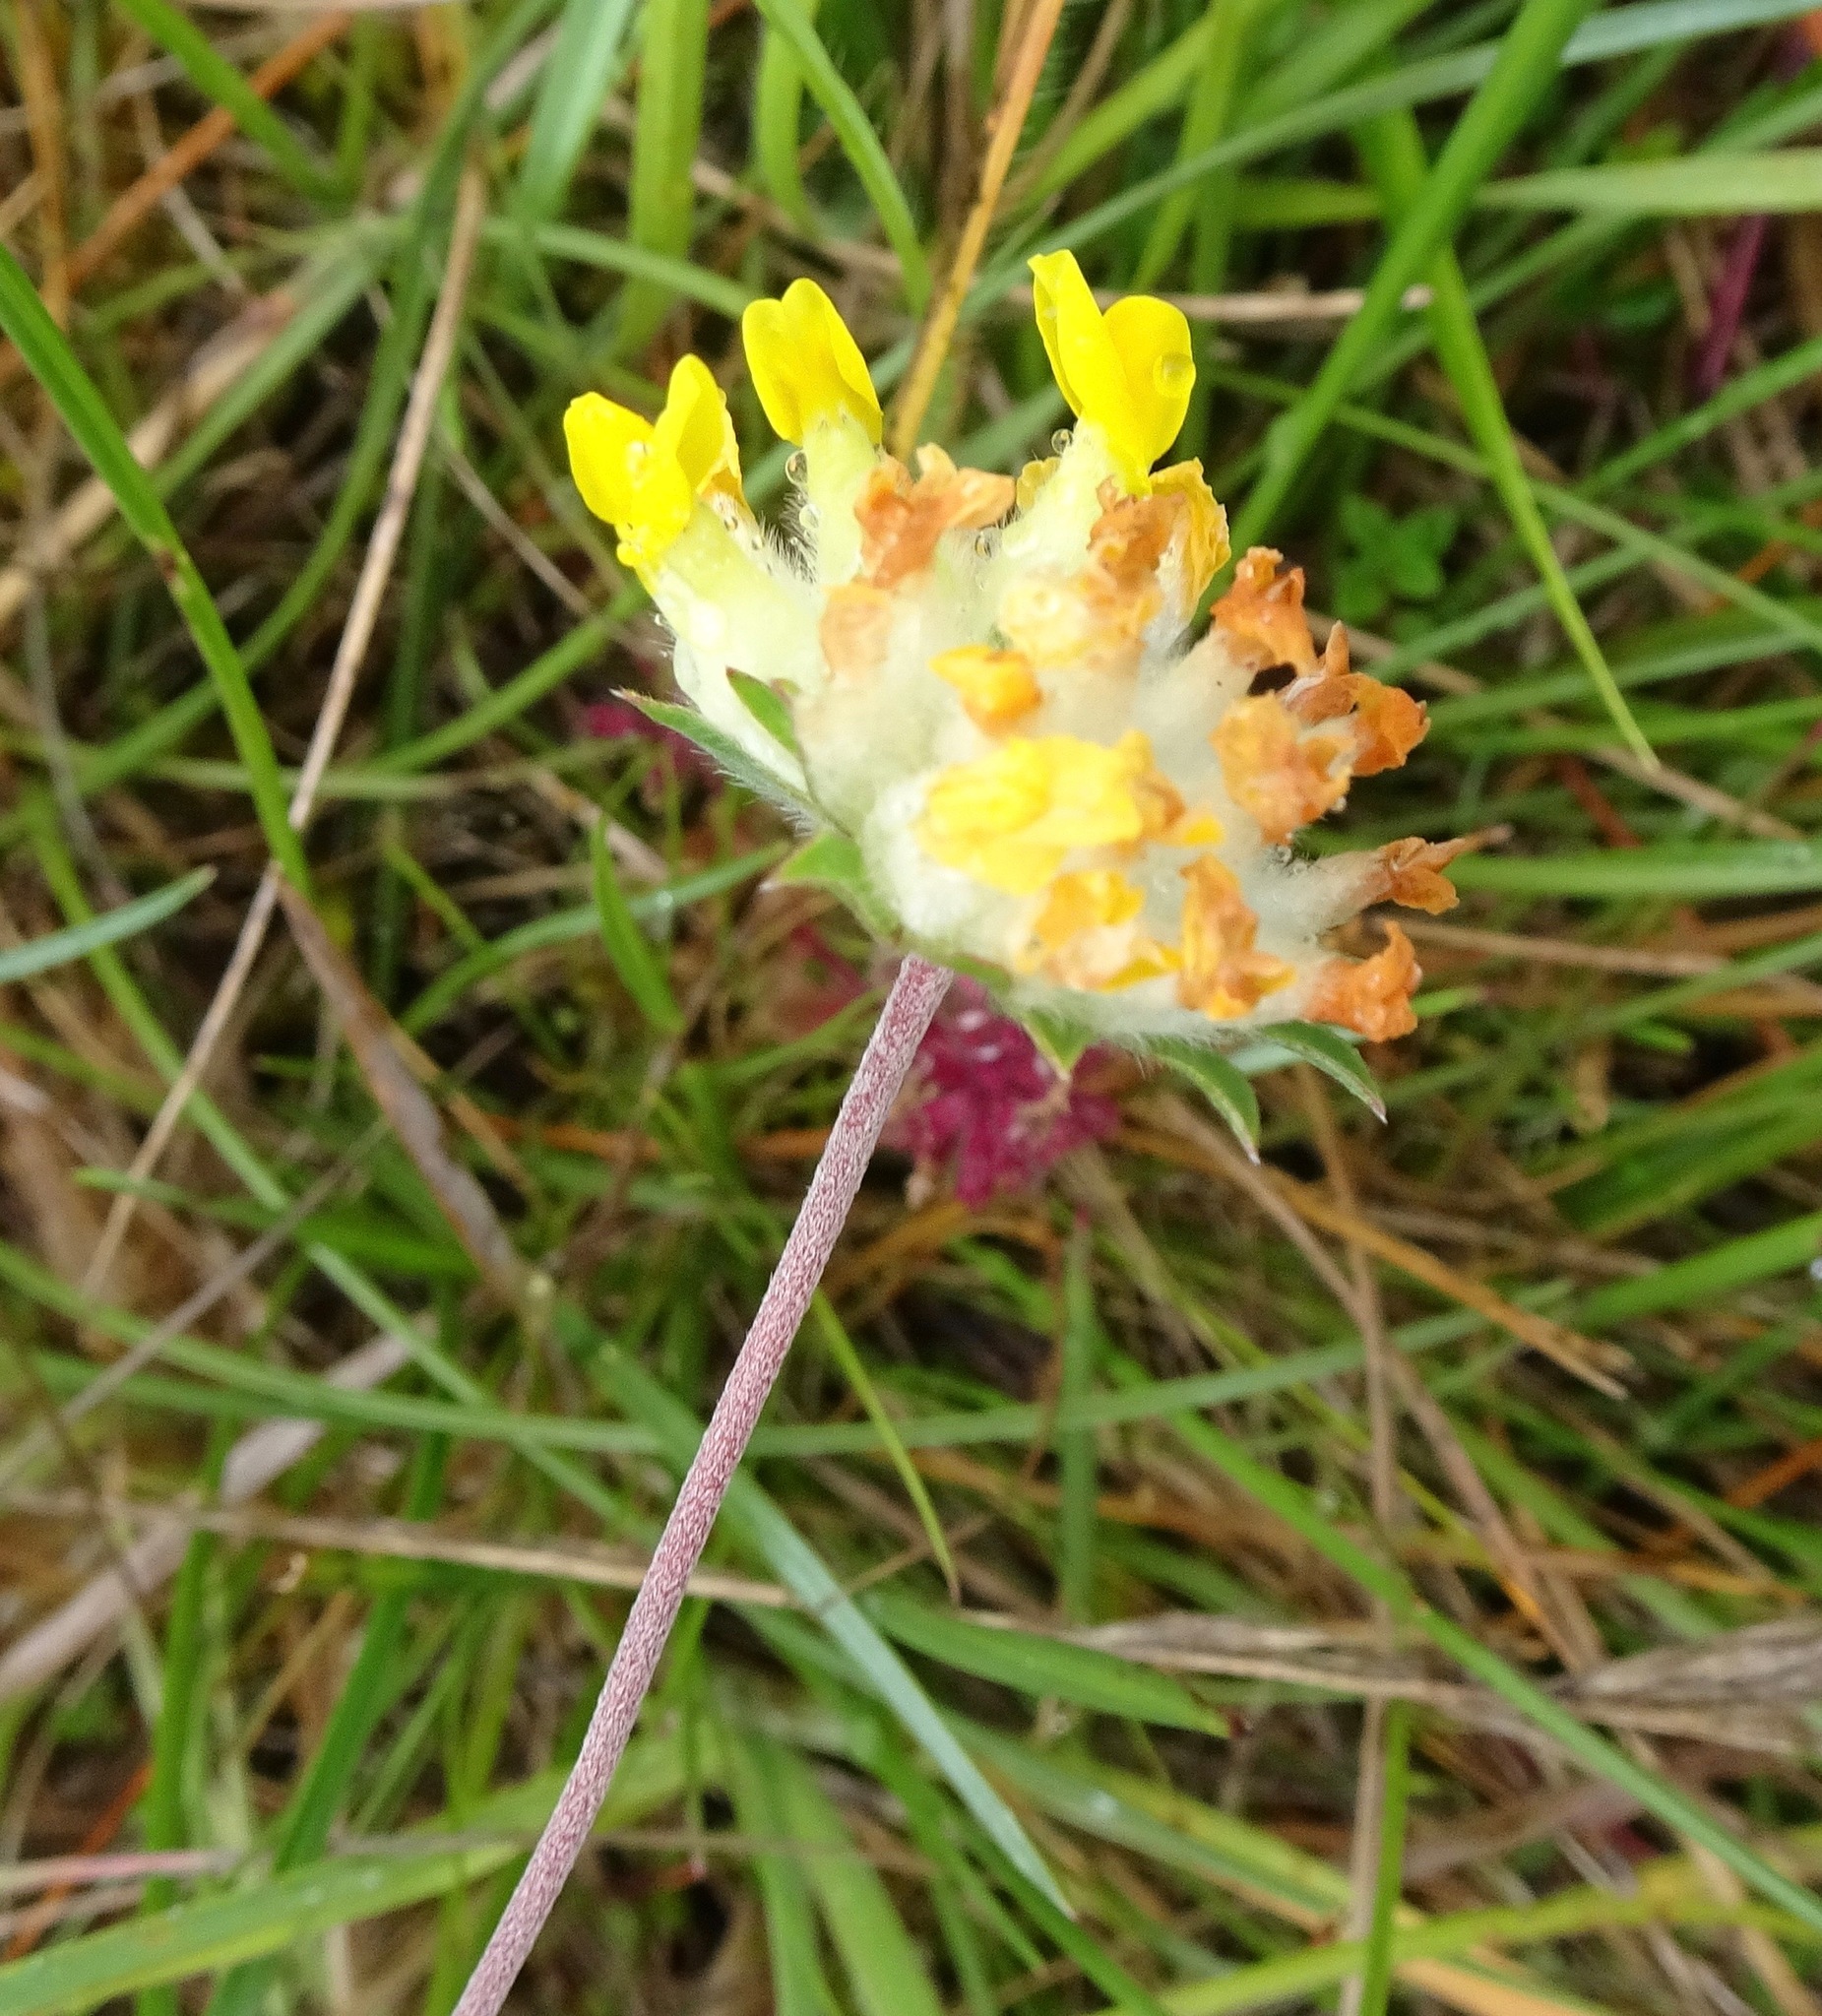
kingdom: Plantae
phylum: Tracheophyta
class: Magnoliopsida
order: Fabales
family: Fabaceae
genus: Anthyllis
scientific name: Anthyllis vulneraria
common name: Kidney vetch
